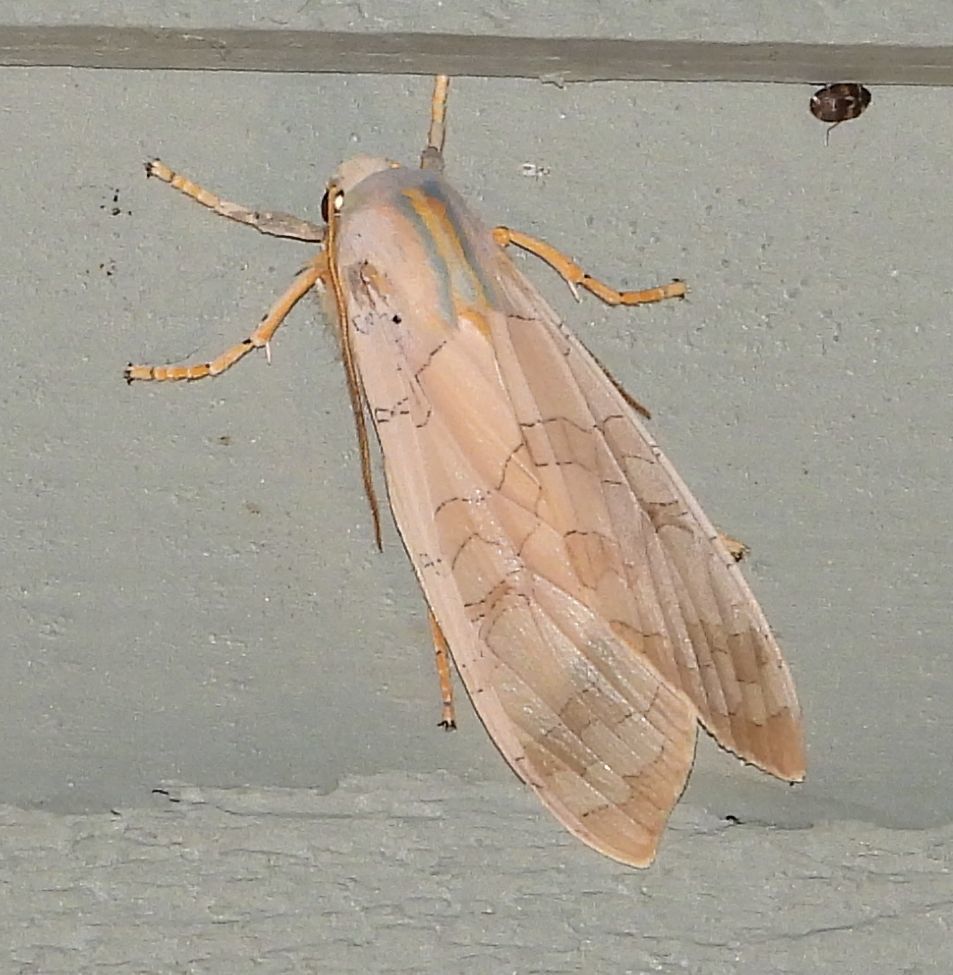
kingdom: Animalia
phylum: Arthropoda
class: Insecta
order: Lepidoptera
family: Erebidae
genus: Halysidota
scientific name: Halysidota tessellaris
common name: Banded tussock moth
